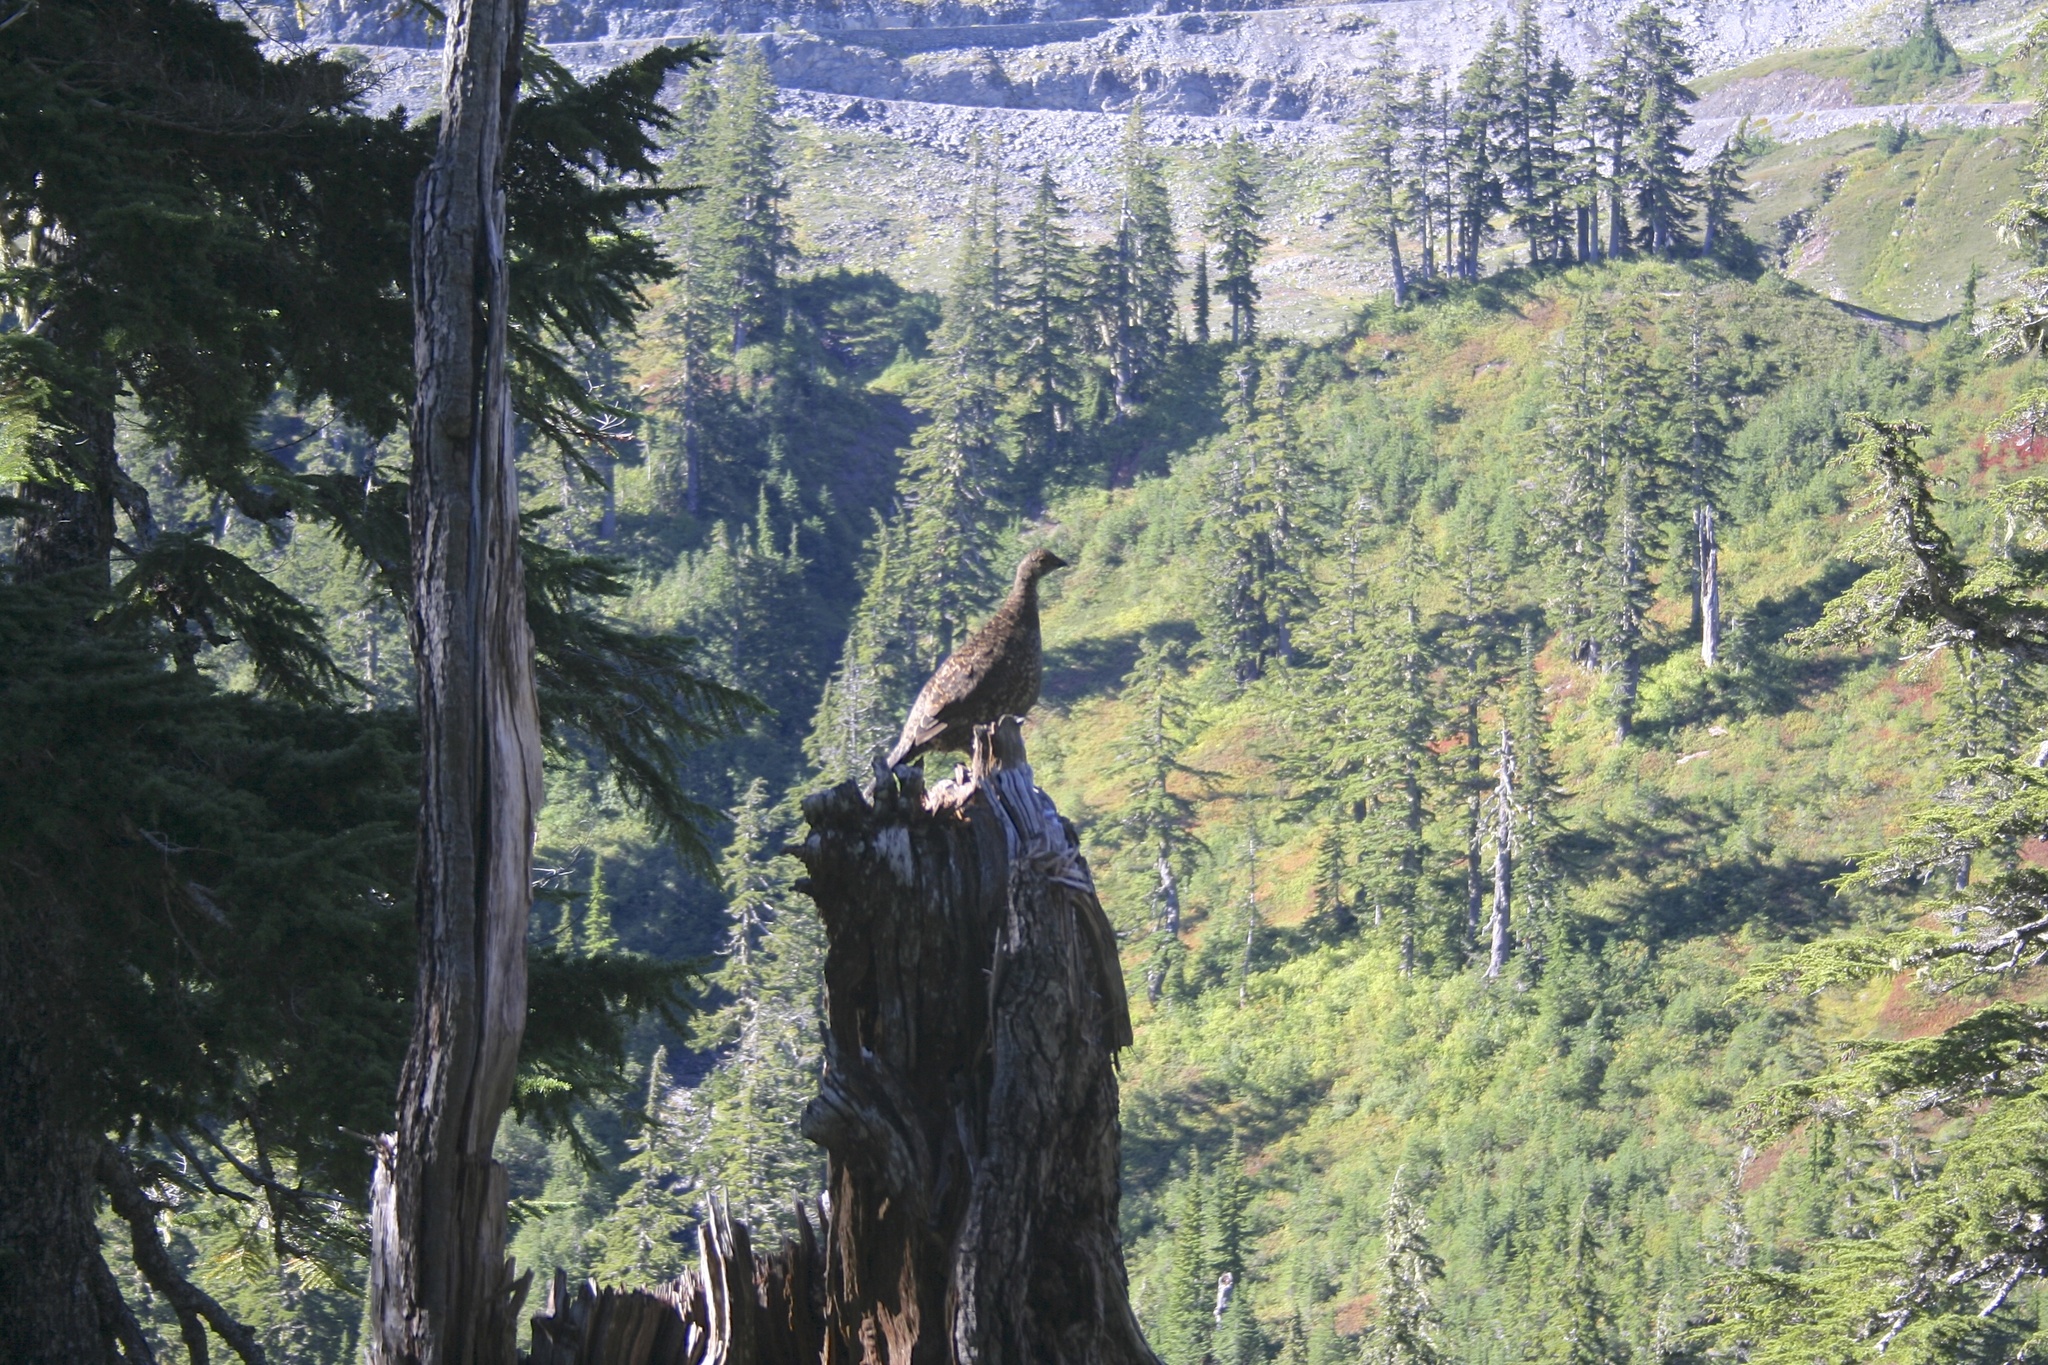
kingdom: Animalia
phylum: Chordata
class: Aves
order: Galliformes
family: Phasianidae
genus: Dendragapus
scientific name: Dendragapus fuliginosus
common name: Sooty grouse
